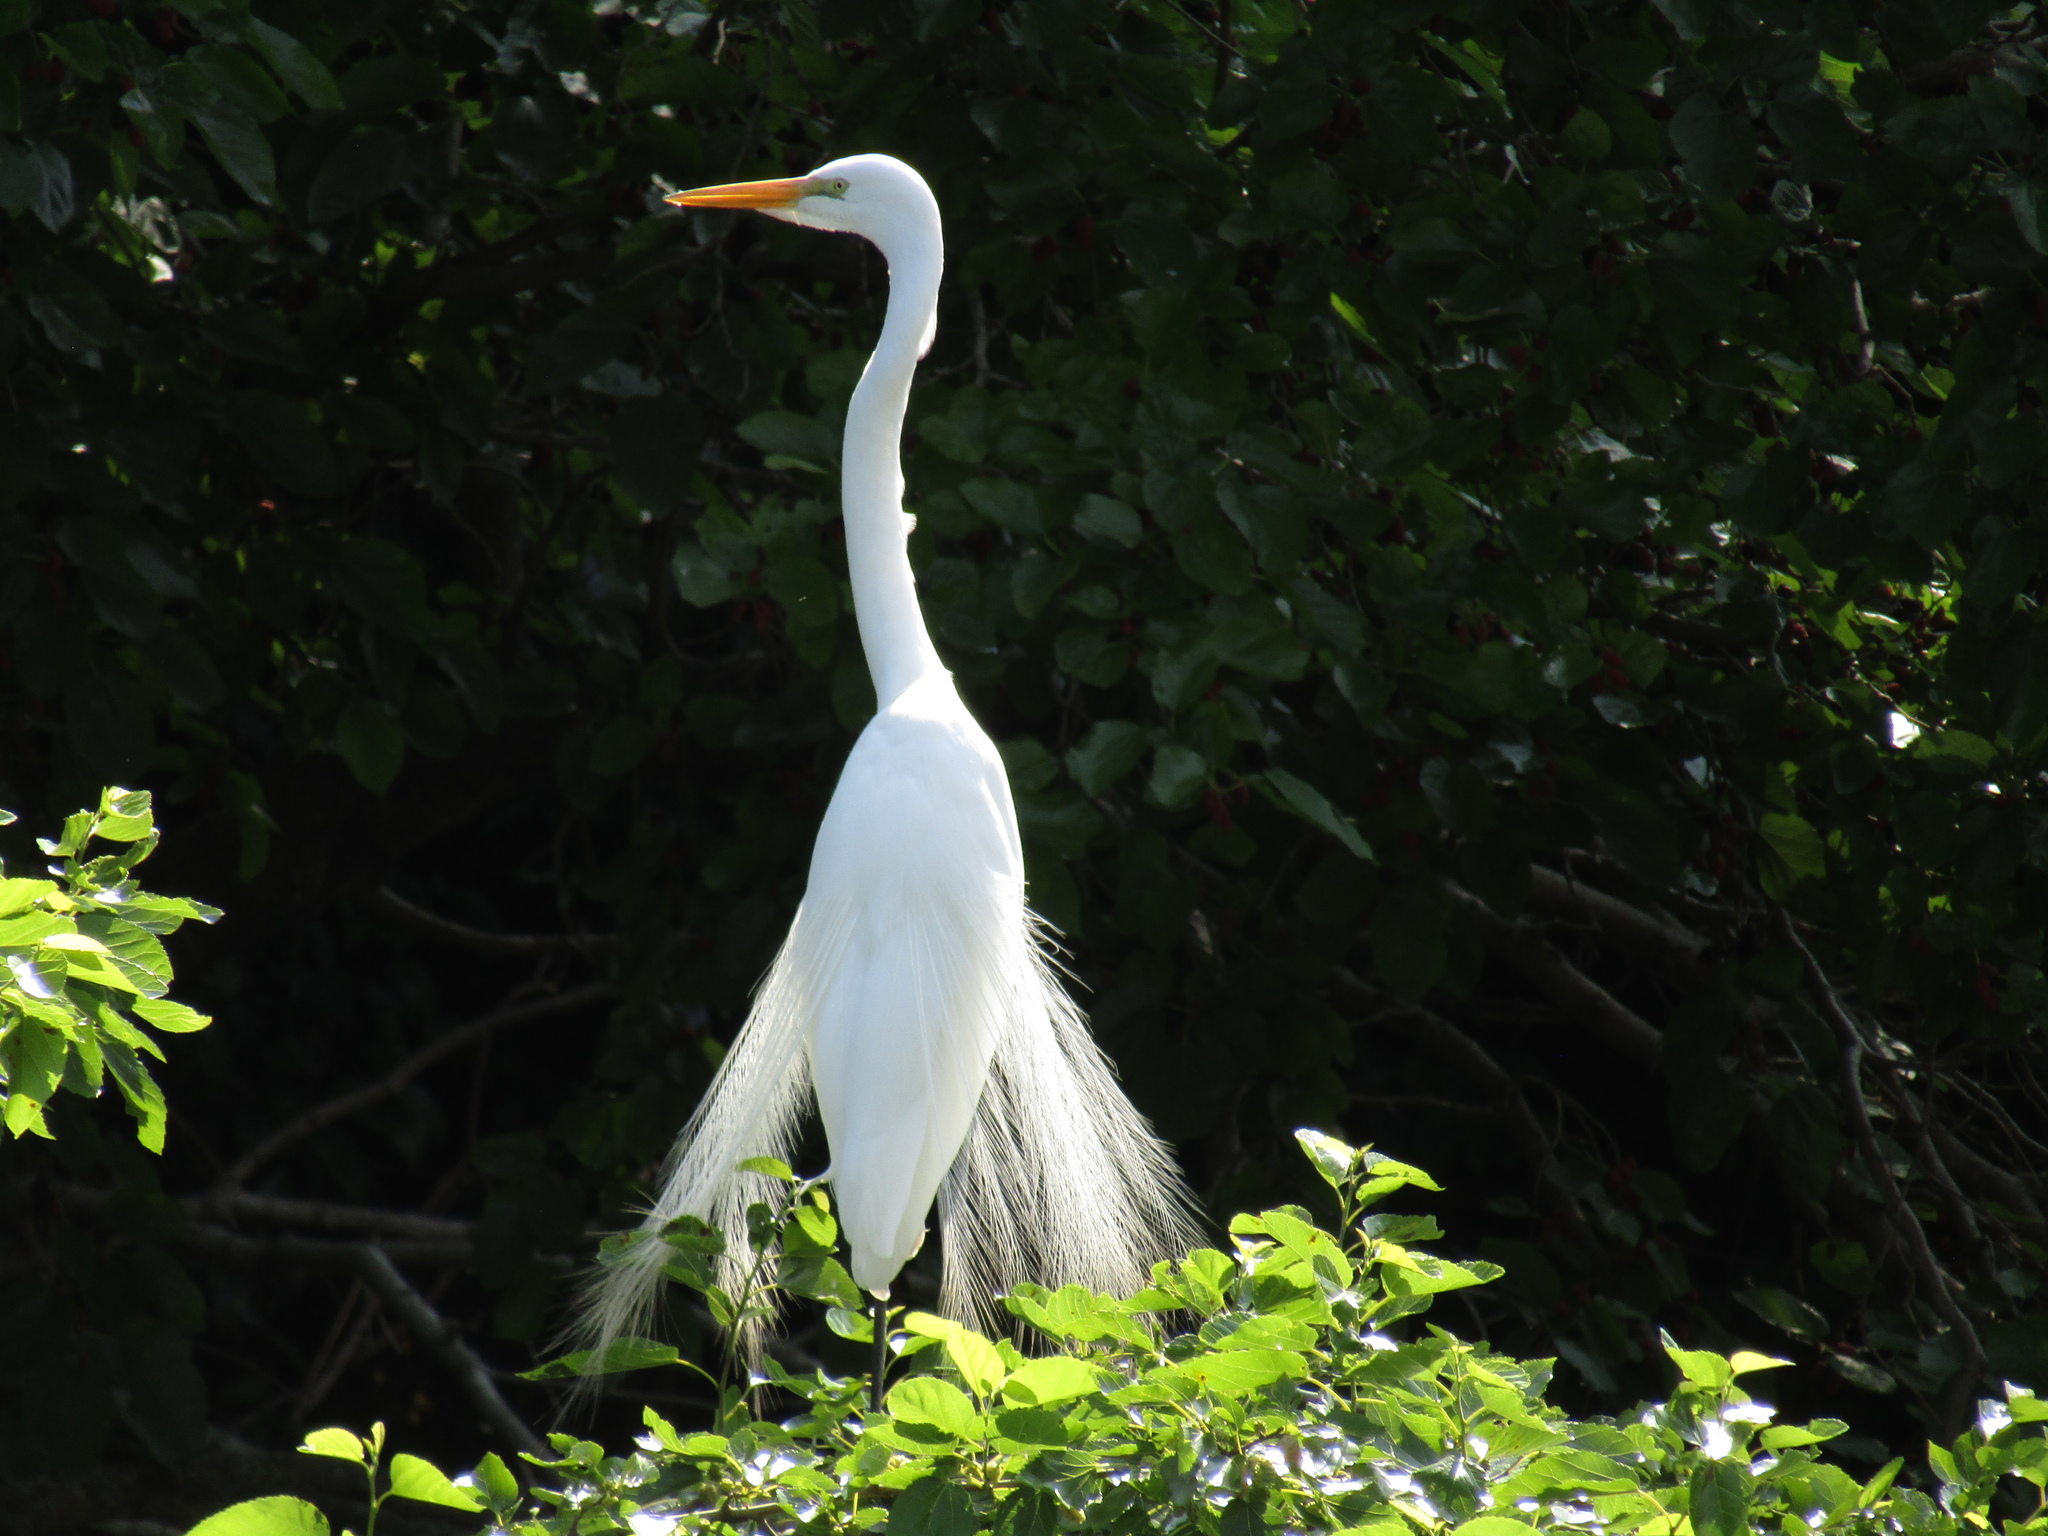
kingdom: Animalia
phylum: Chordata
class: Aves
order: Pelecaniformes
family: Ardeidae
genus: Ardea
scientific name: Ardea alba
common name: Great egret
